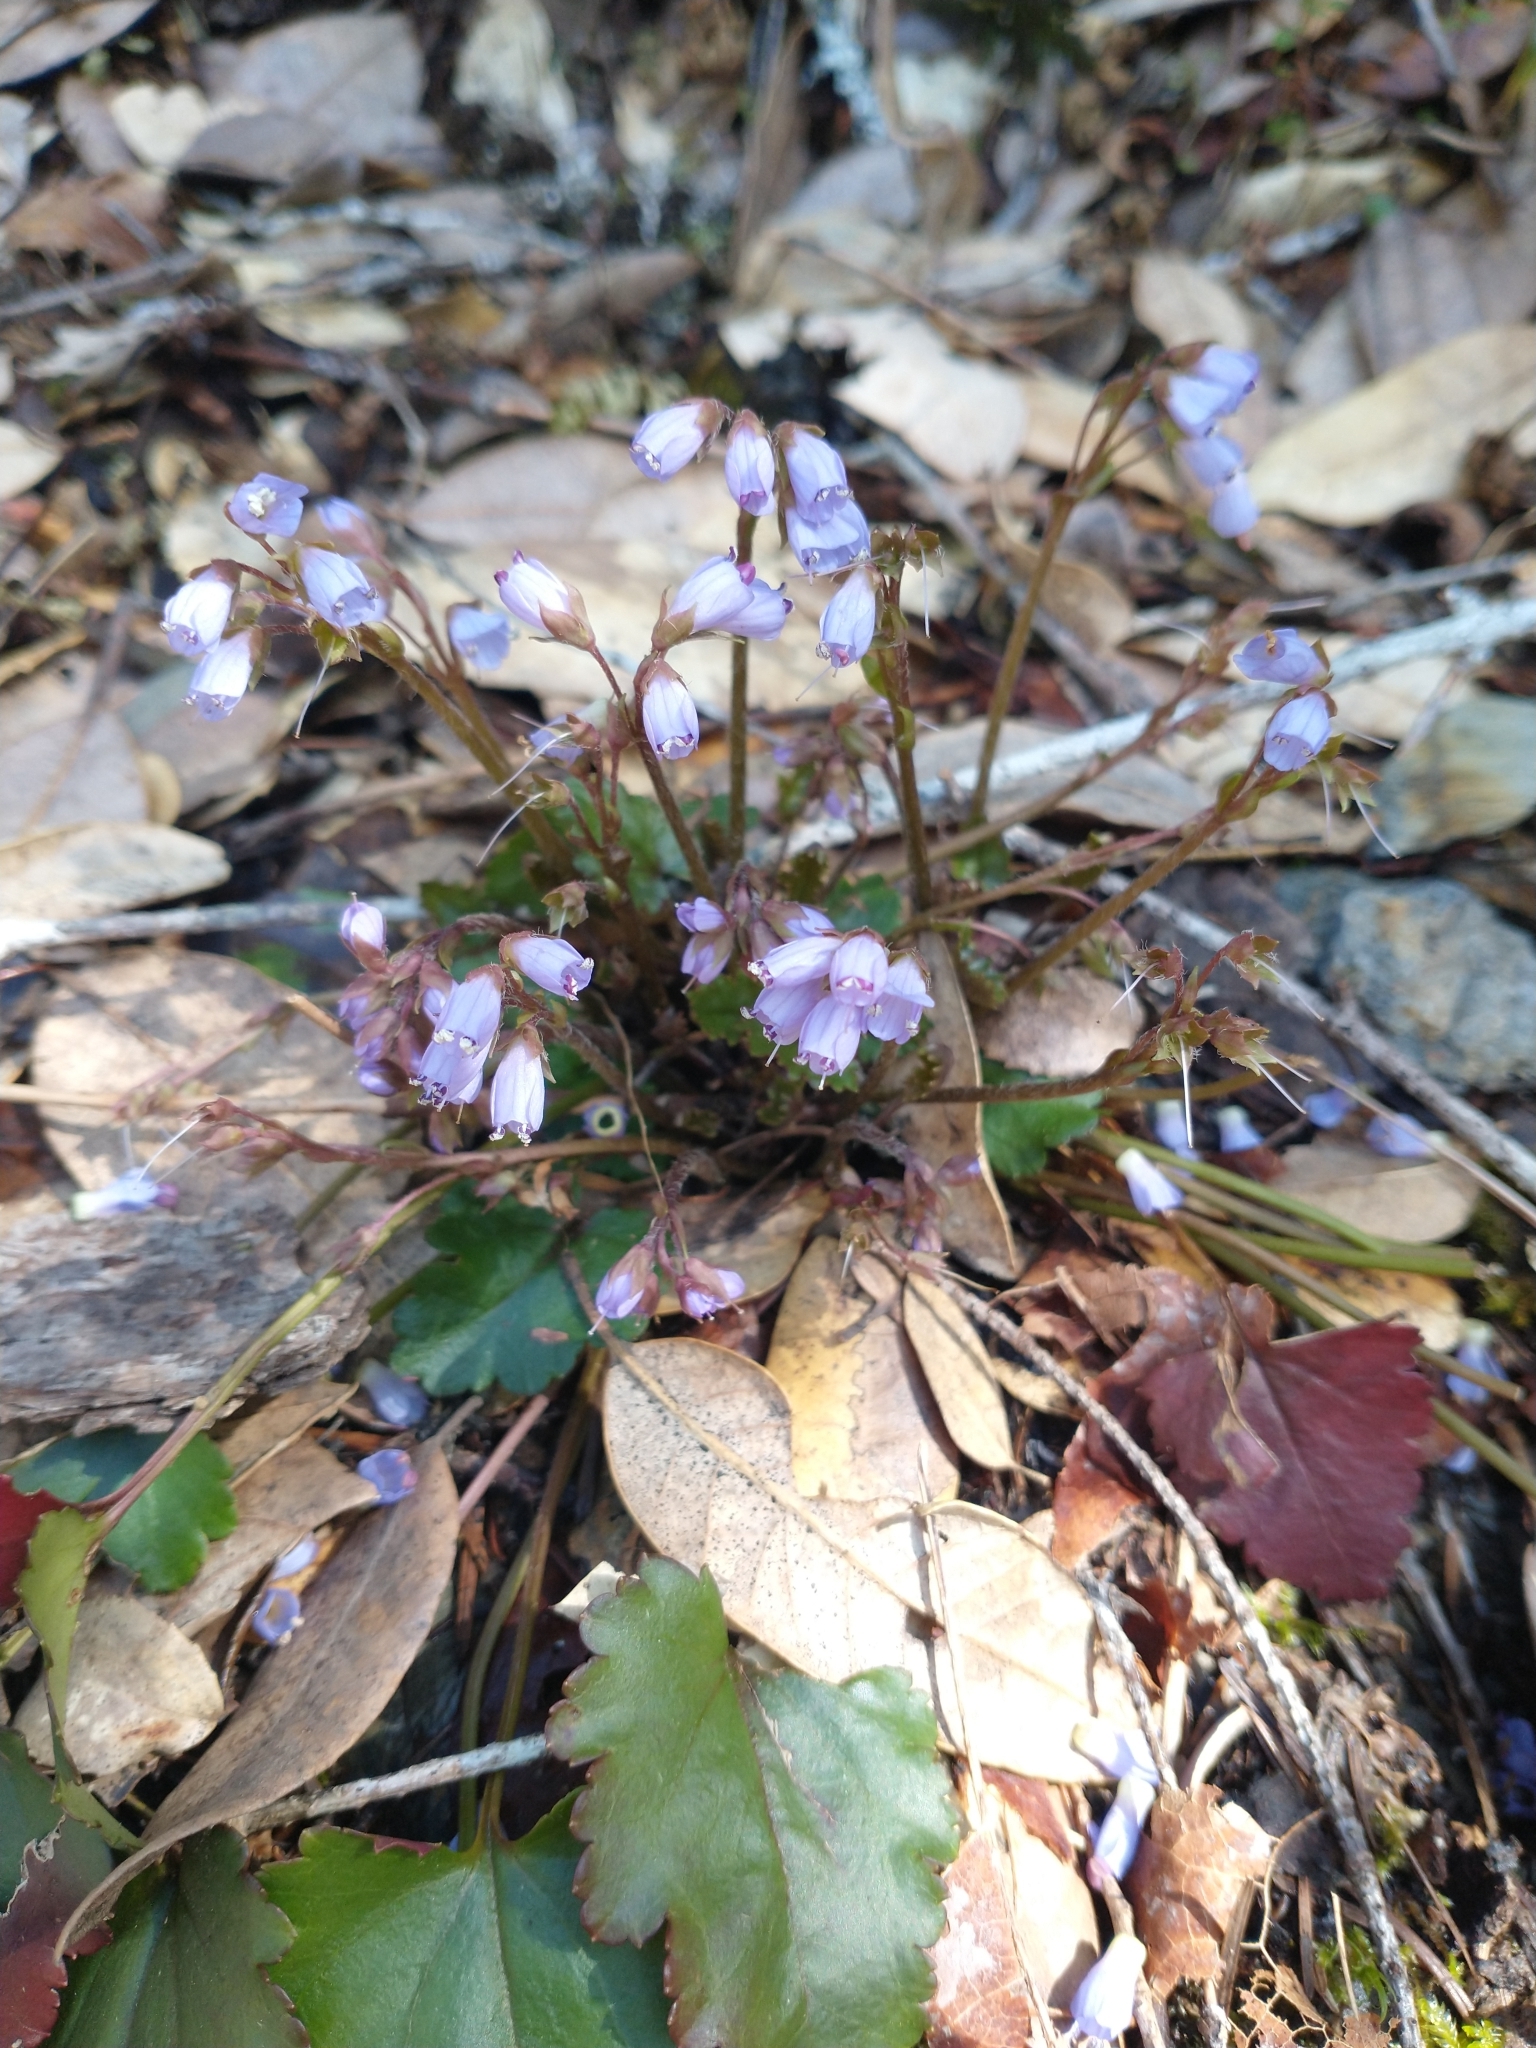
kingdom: Plantae
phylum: Tracheophyta
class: Magnoliopsida
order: Lamiales
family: Plantaginaceae
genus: Synthyris
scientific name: Synthyris reniformis
